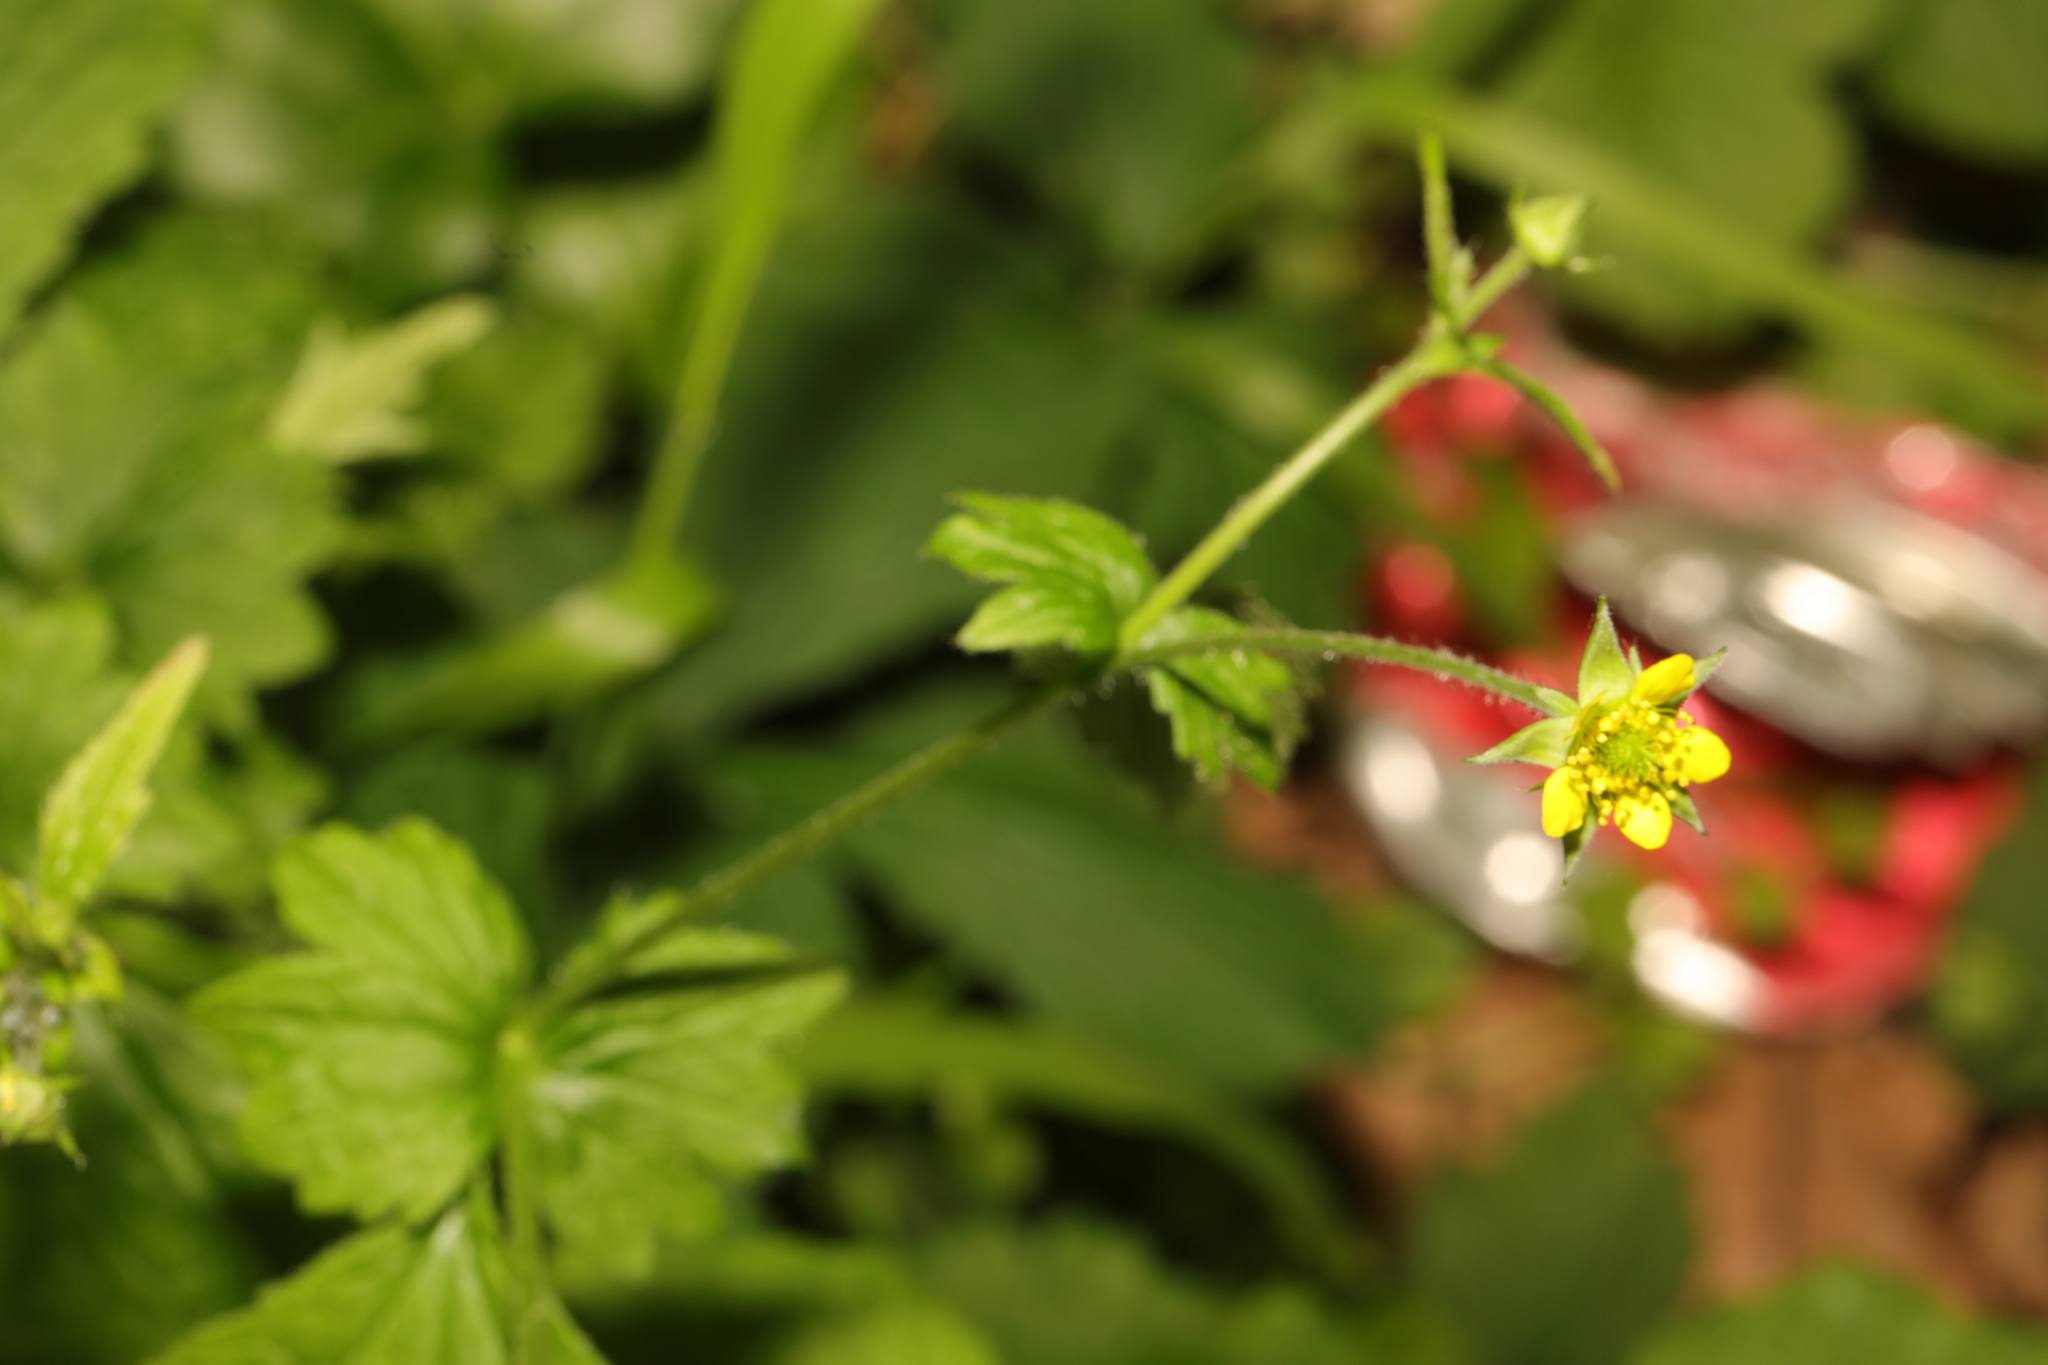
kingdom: Plantae
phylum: Tracheophyta
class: Magnoliopsida
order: Rosales
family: Rosaceae
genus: Geum
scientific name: Geum urbanum
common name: Wood avens
